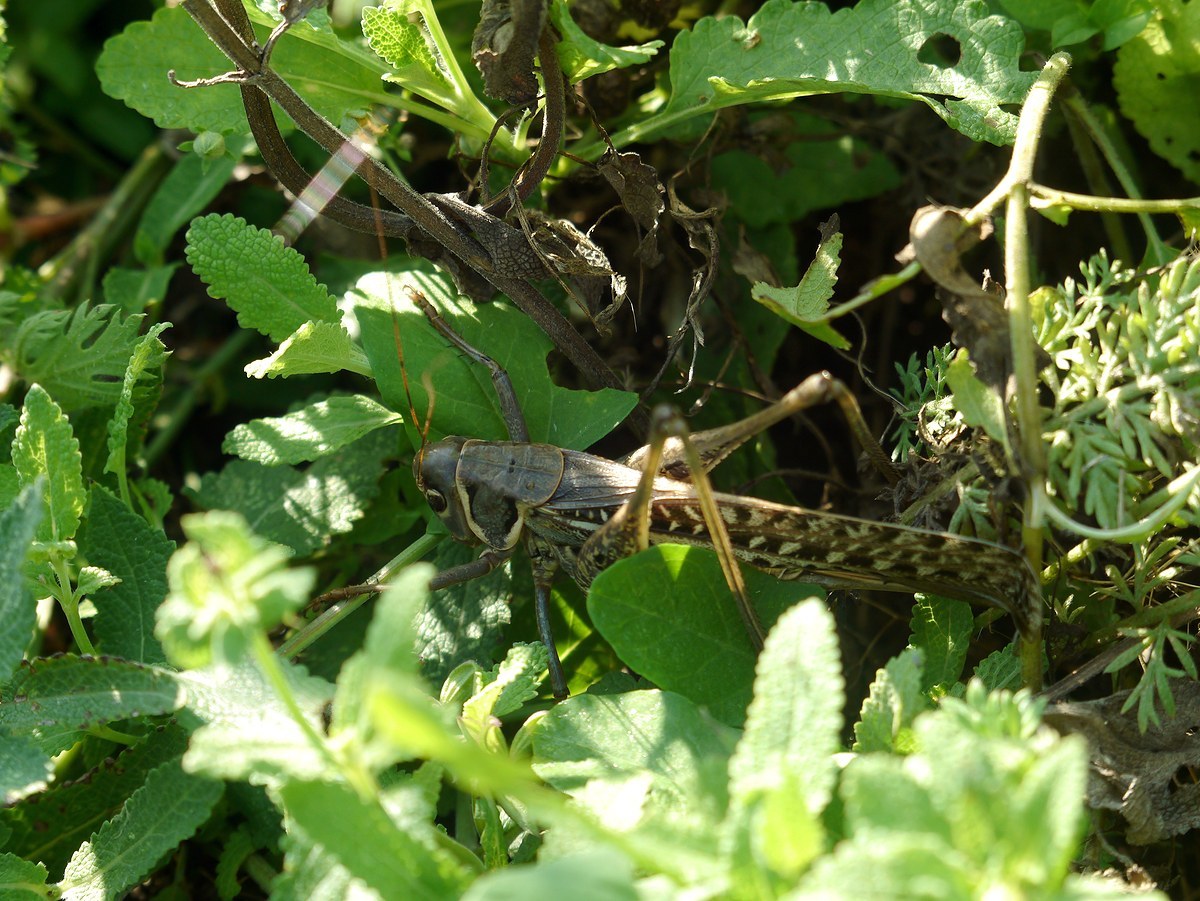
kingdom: Animalia
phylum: Arthropoda
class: Insecta
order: Orthoptera
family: Tettigoniidae
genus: Decticus
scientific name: Decticus albifrons
